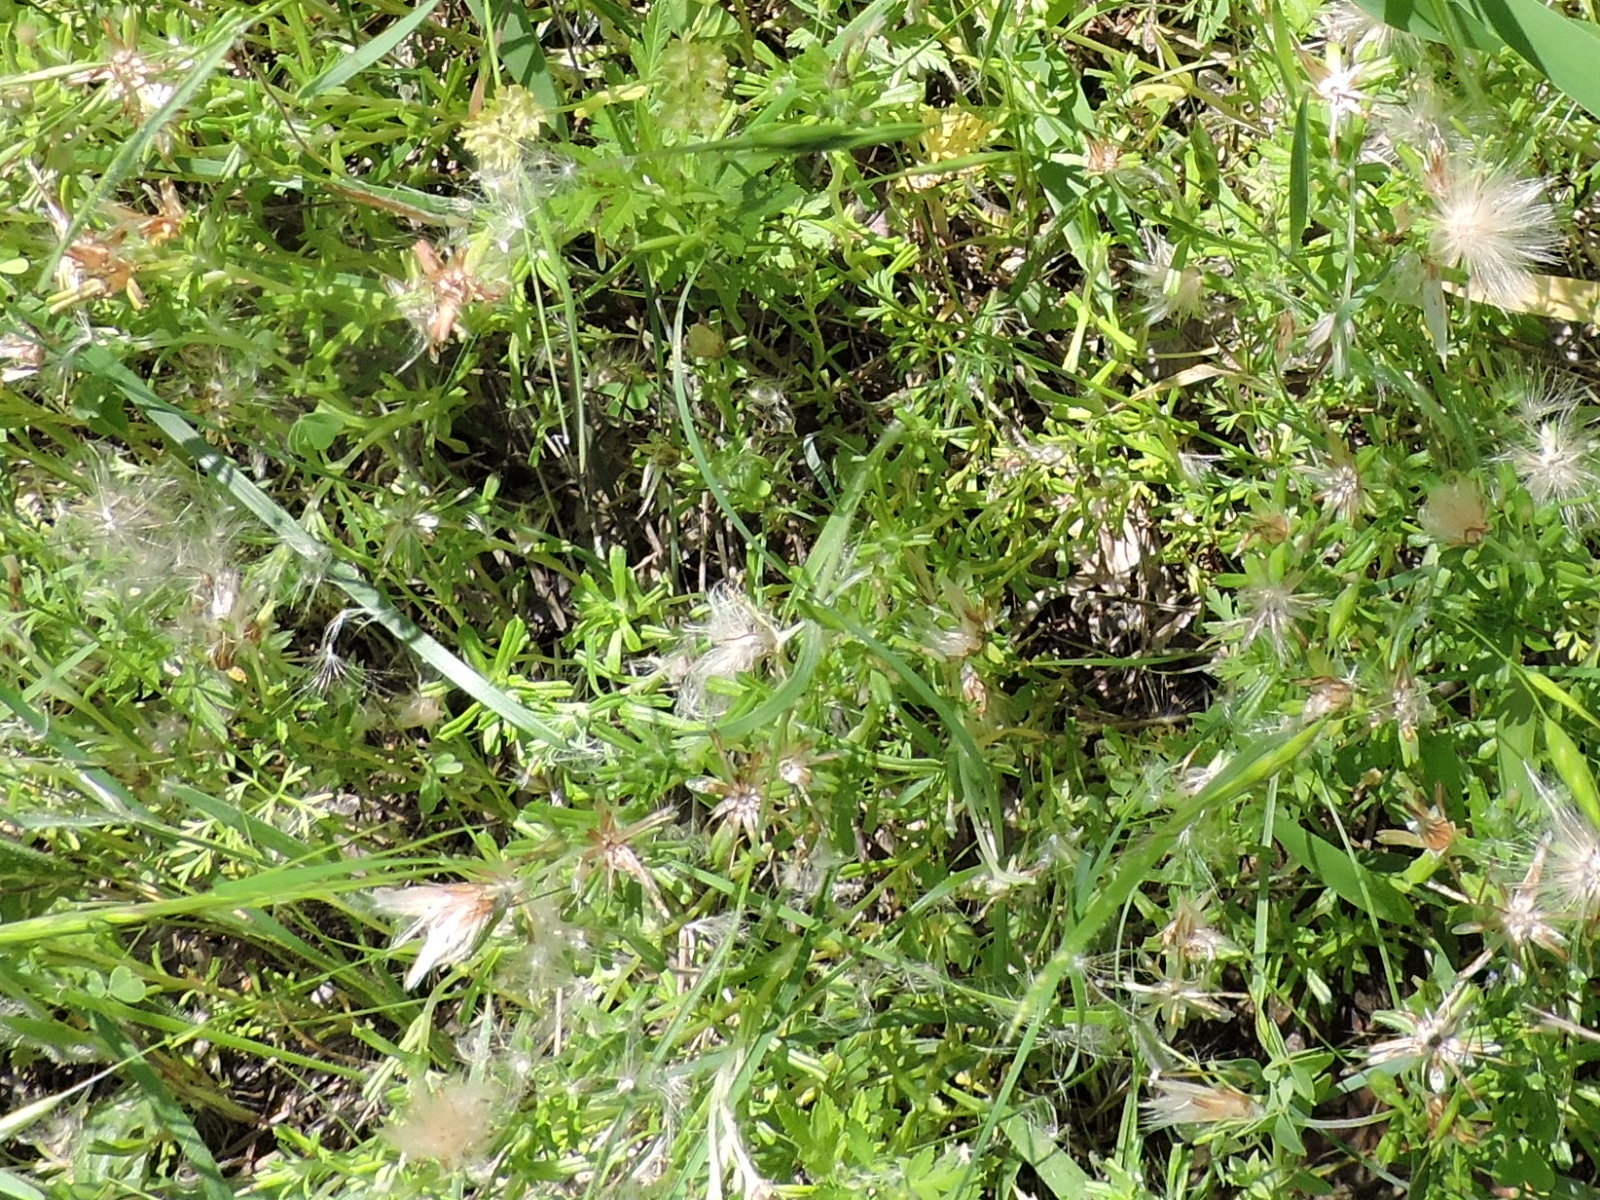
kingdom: Plantae
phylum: Tracheophyta
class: Magnoliopsida
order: Asterales
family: Asteraceae
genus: Facelis
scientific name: Facelis retusa
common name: Annual trampweed
